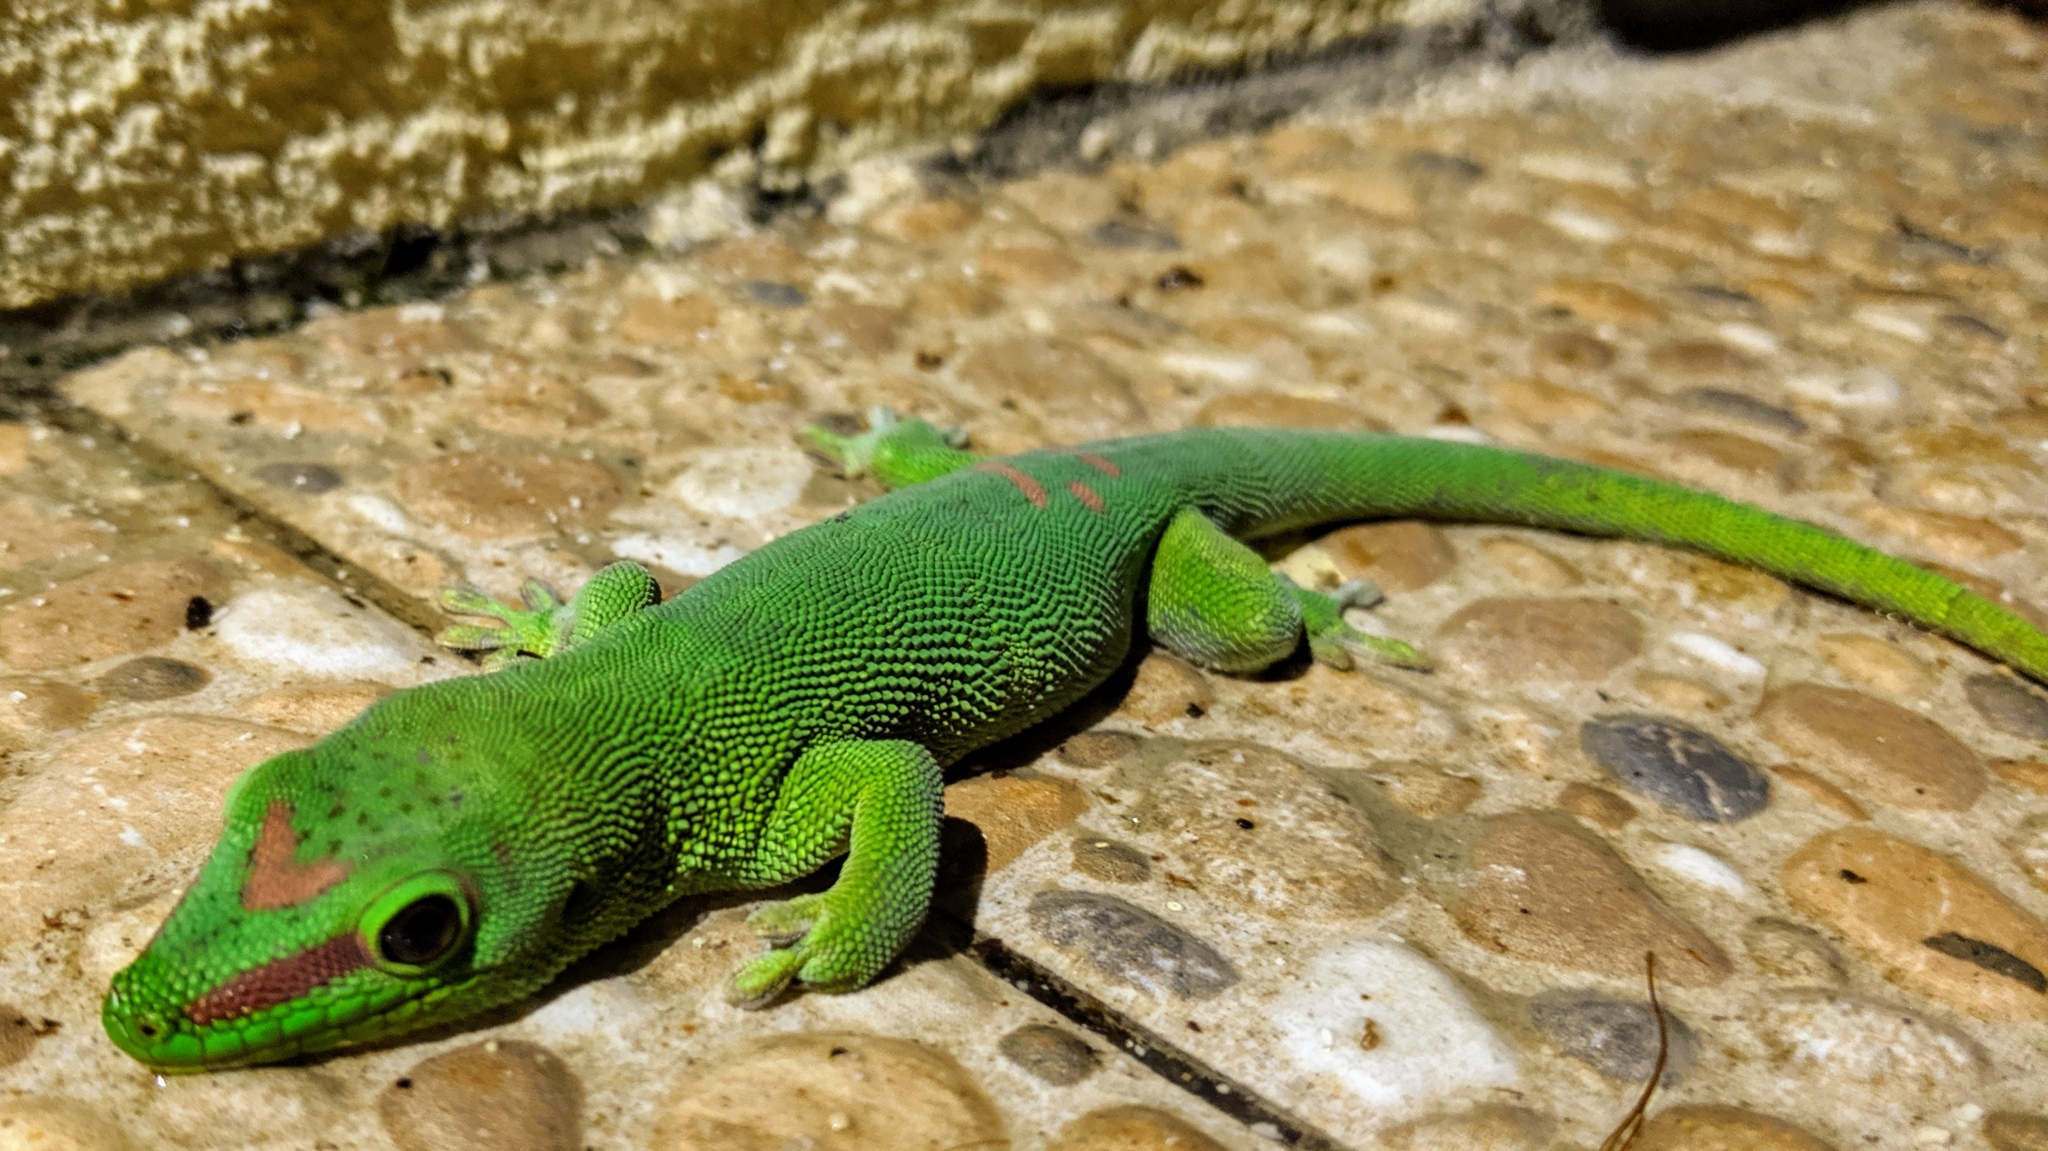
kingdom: Animalia
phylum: Chordata
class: Squamata
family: Gekkonidae
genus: Phelsuma
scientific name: Phelsuma grandis
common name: Madagascar giant day gecko
